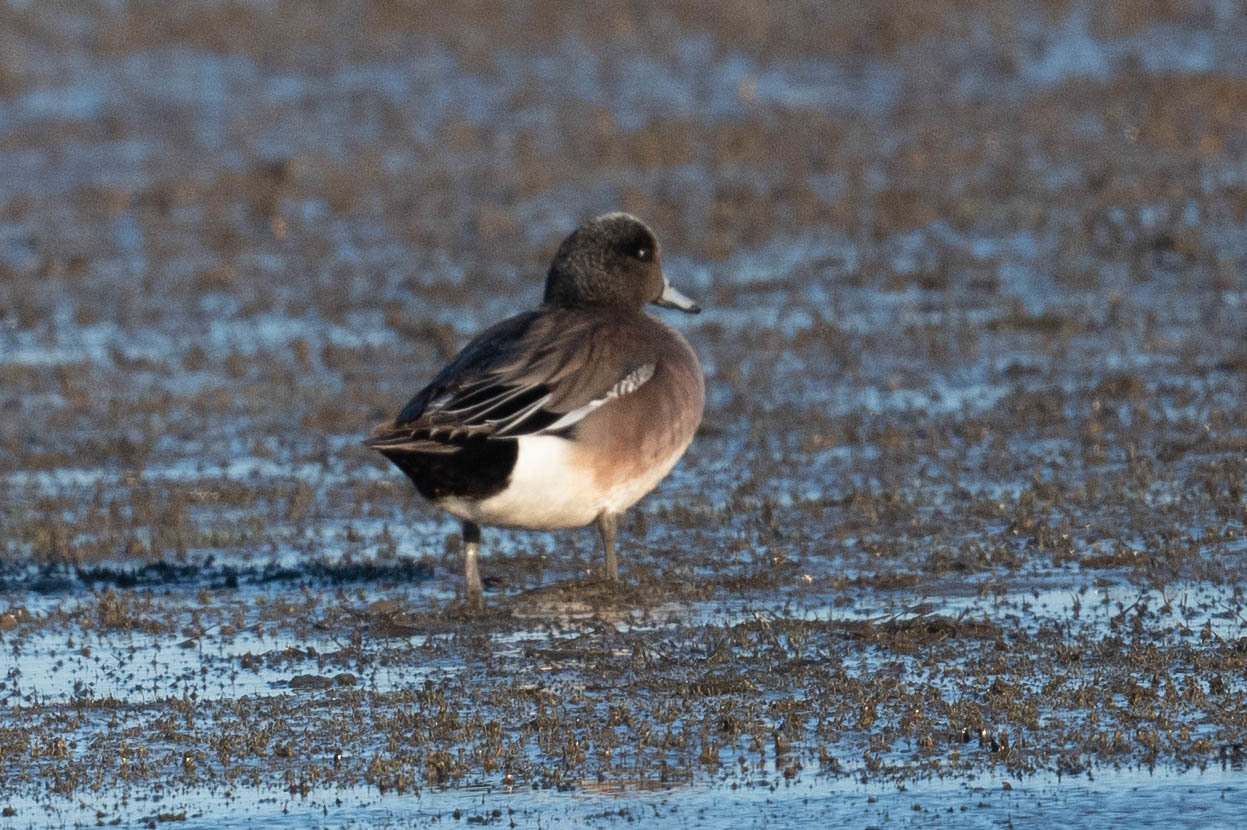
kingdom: Animalia
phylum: Chordata
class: Aves
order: Anseriformes
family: Anatidae
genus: Mareca
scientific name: Mareca americana
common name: American wigeon
